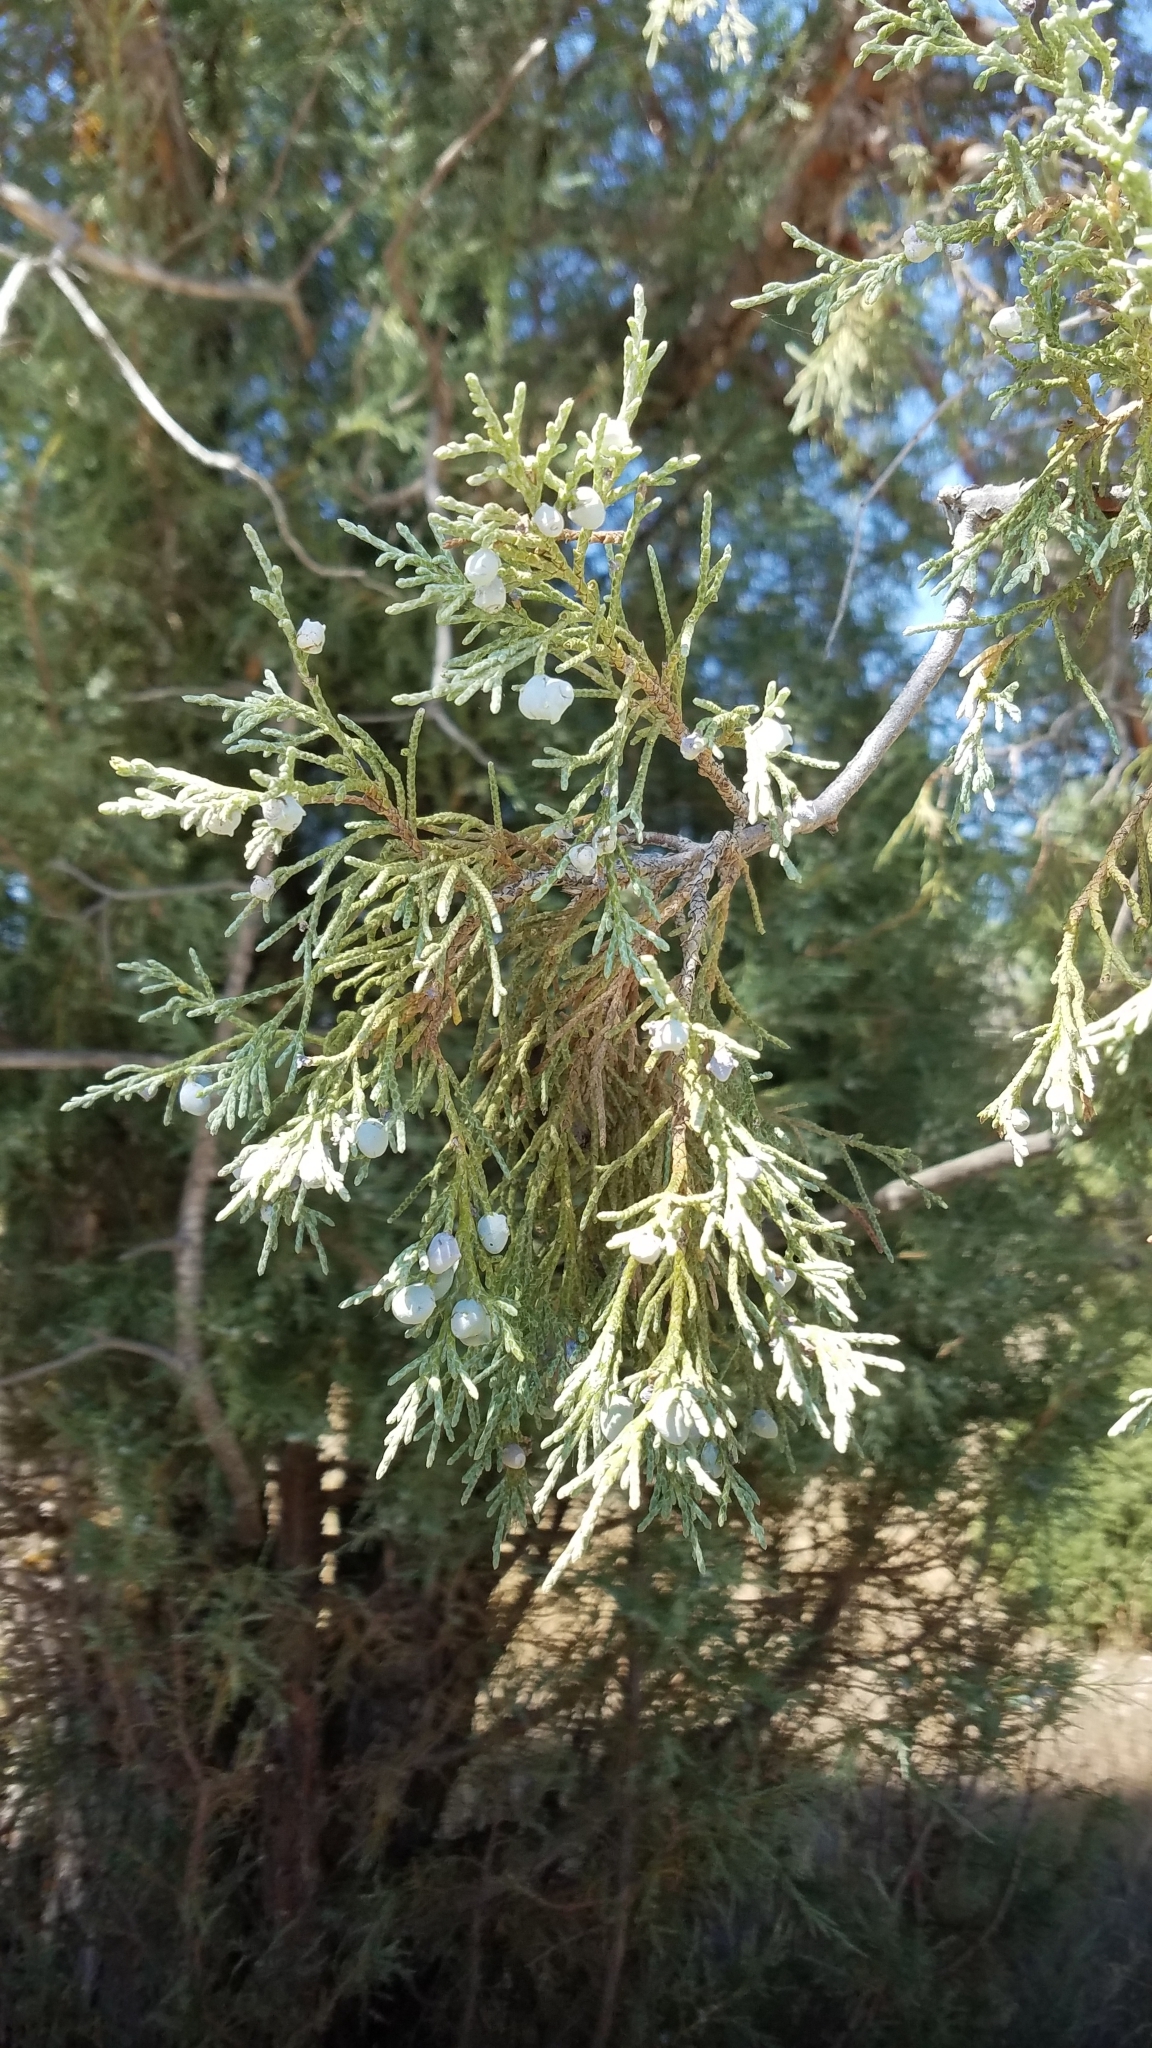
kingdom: Plantae
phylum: Tracheophyta
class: Pinopsida
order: Pinales
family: Cupressaceae
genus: Juniperus
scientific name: Juniperus scopulorum
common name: Rocky mountain juniper
